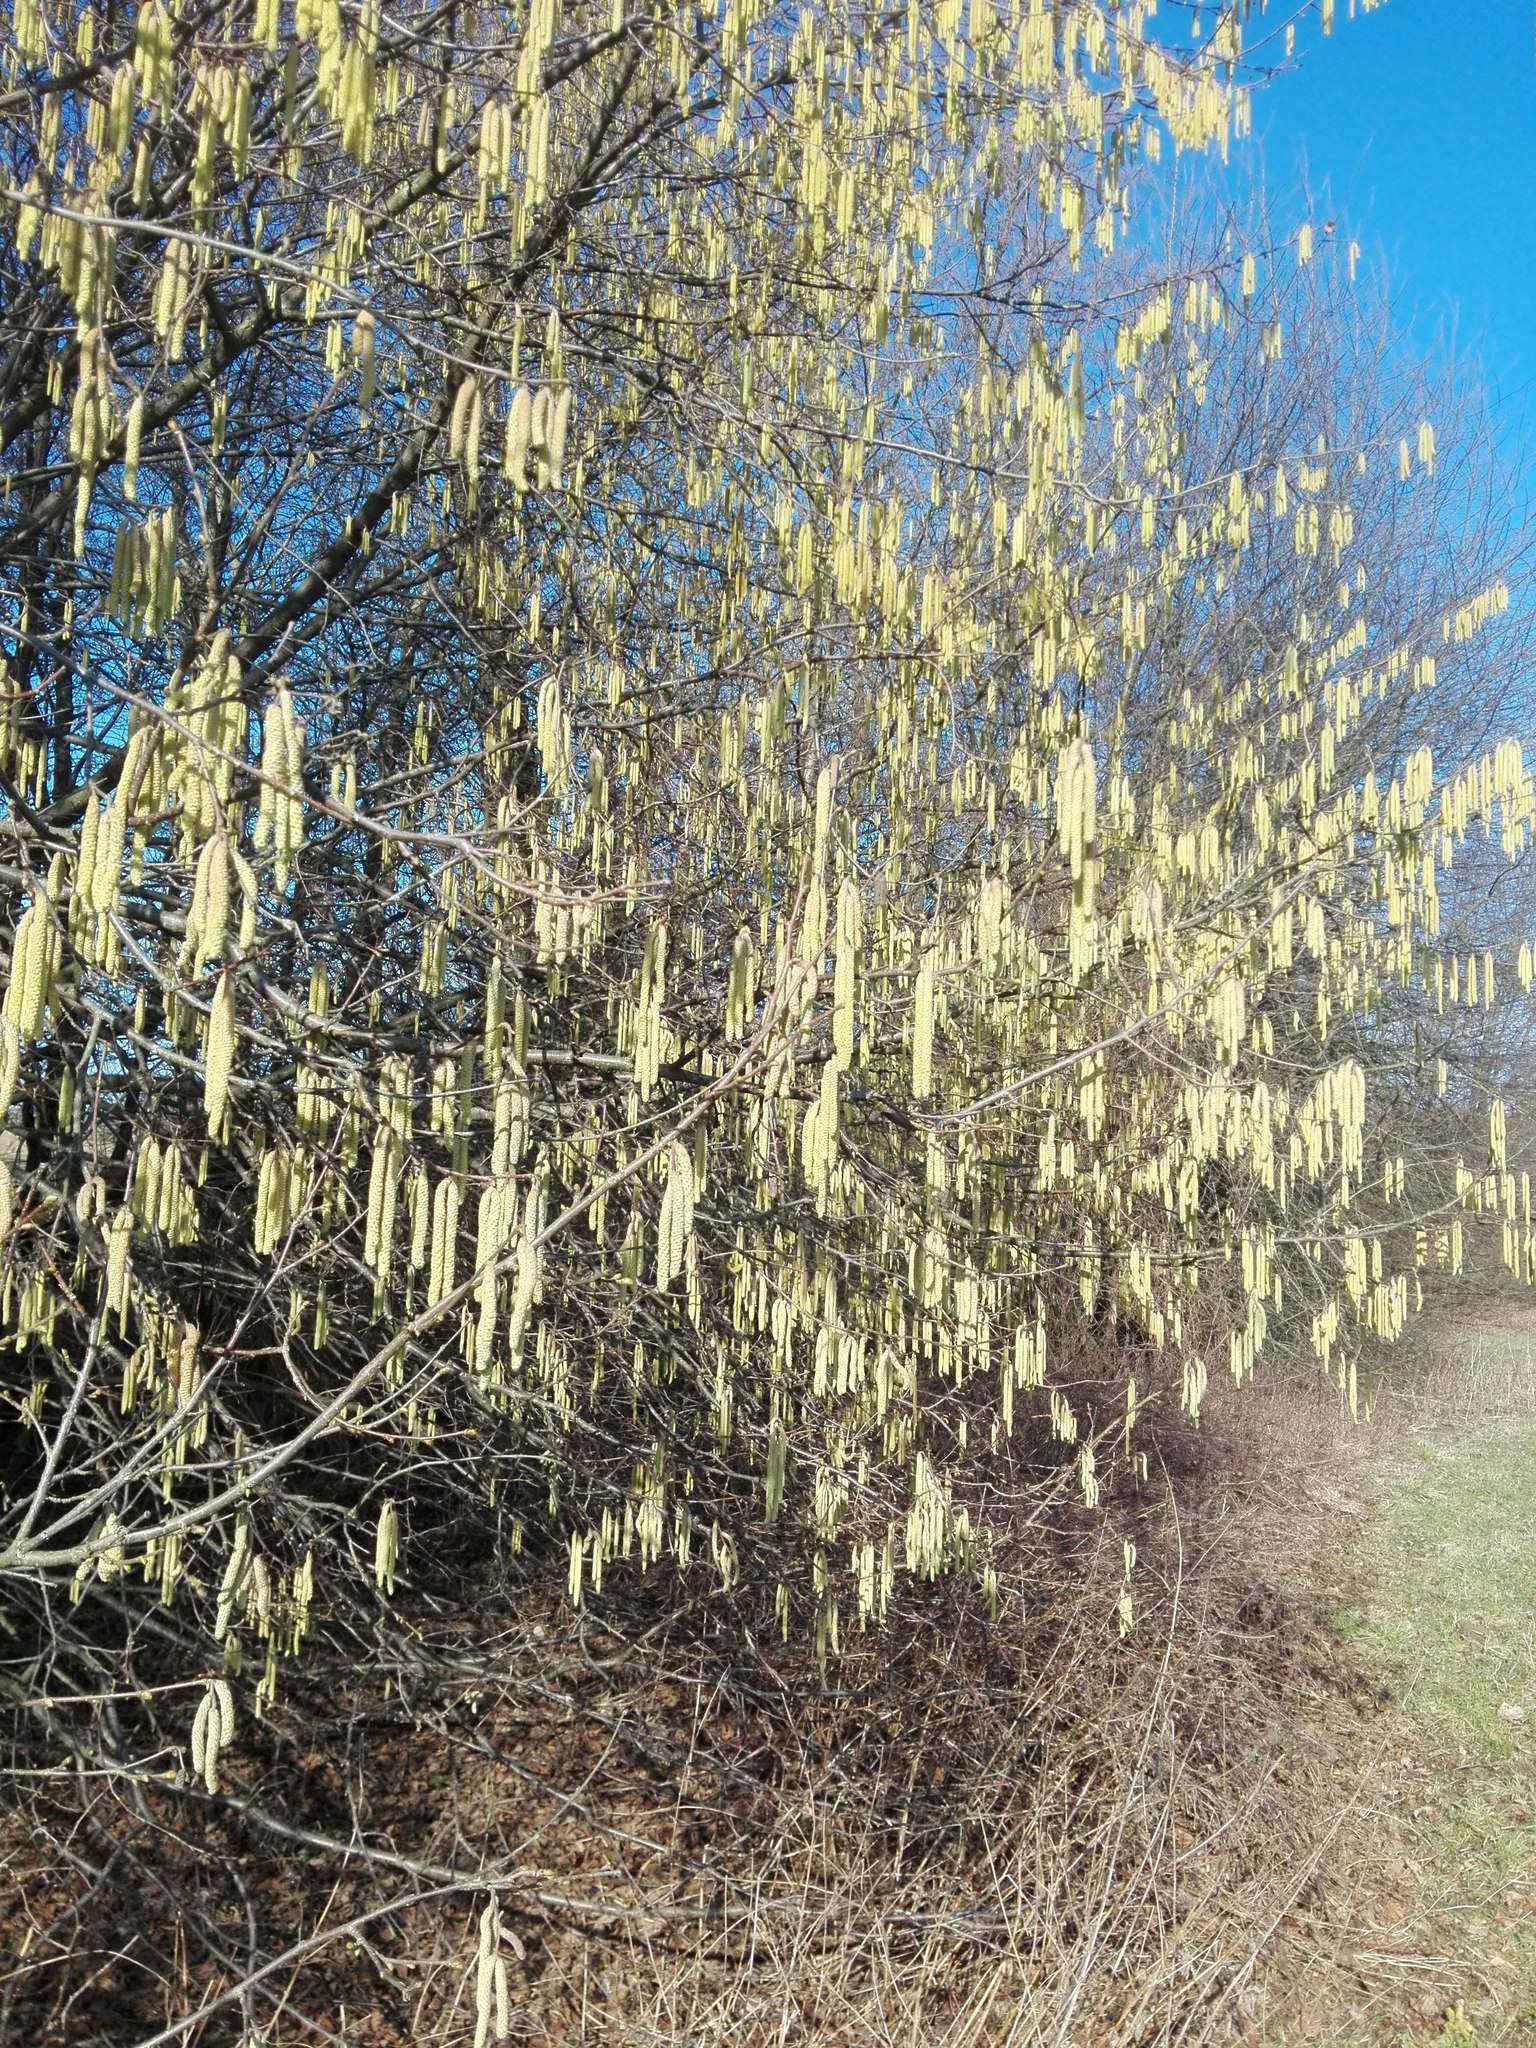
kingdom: Plantae
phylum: Tracheophyta
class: Magnoliopsida
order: Fagales
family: Betulaceae
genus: Corylus
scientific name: Corylus avellana
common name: European hazel
